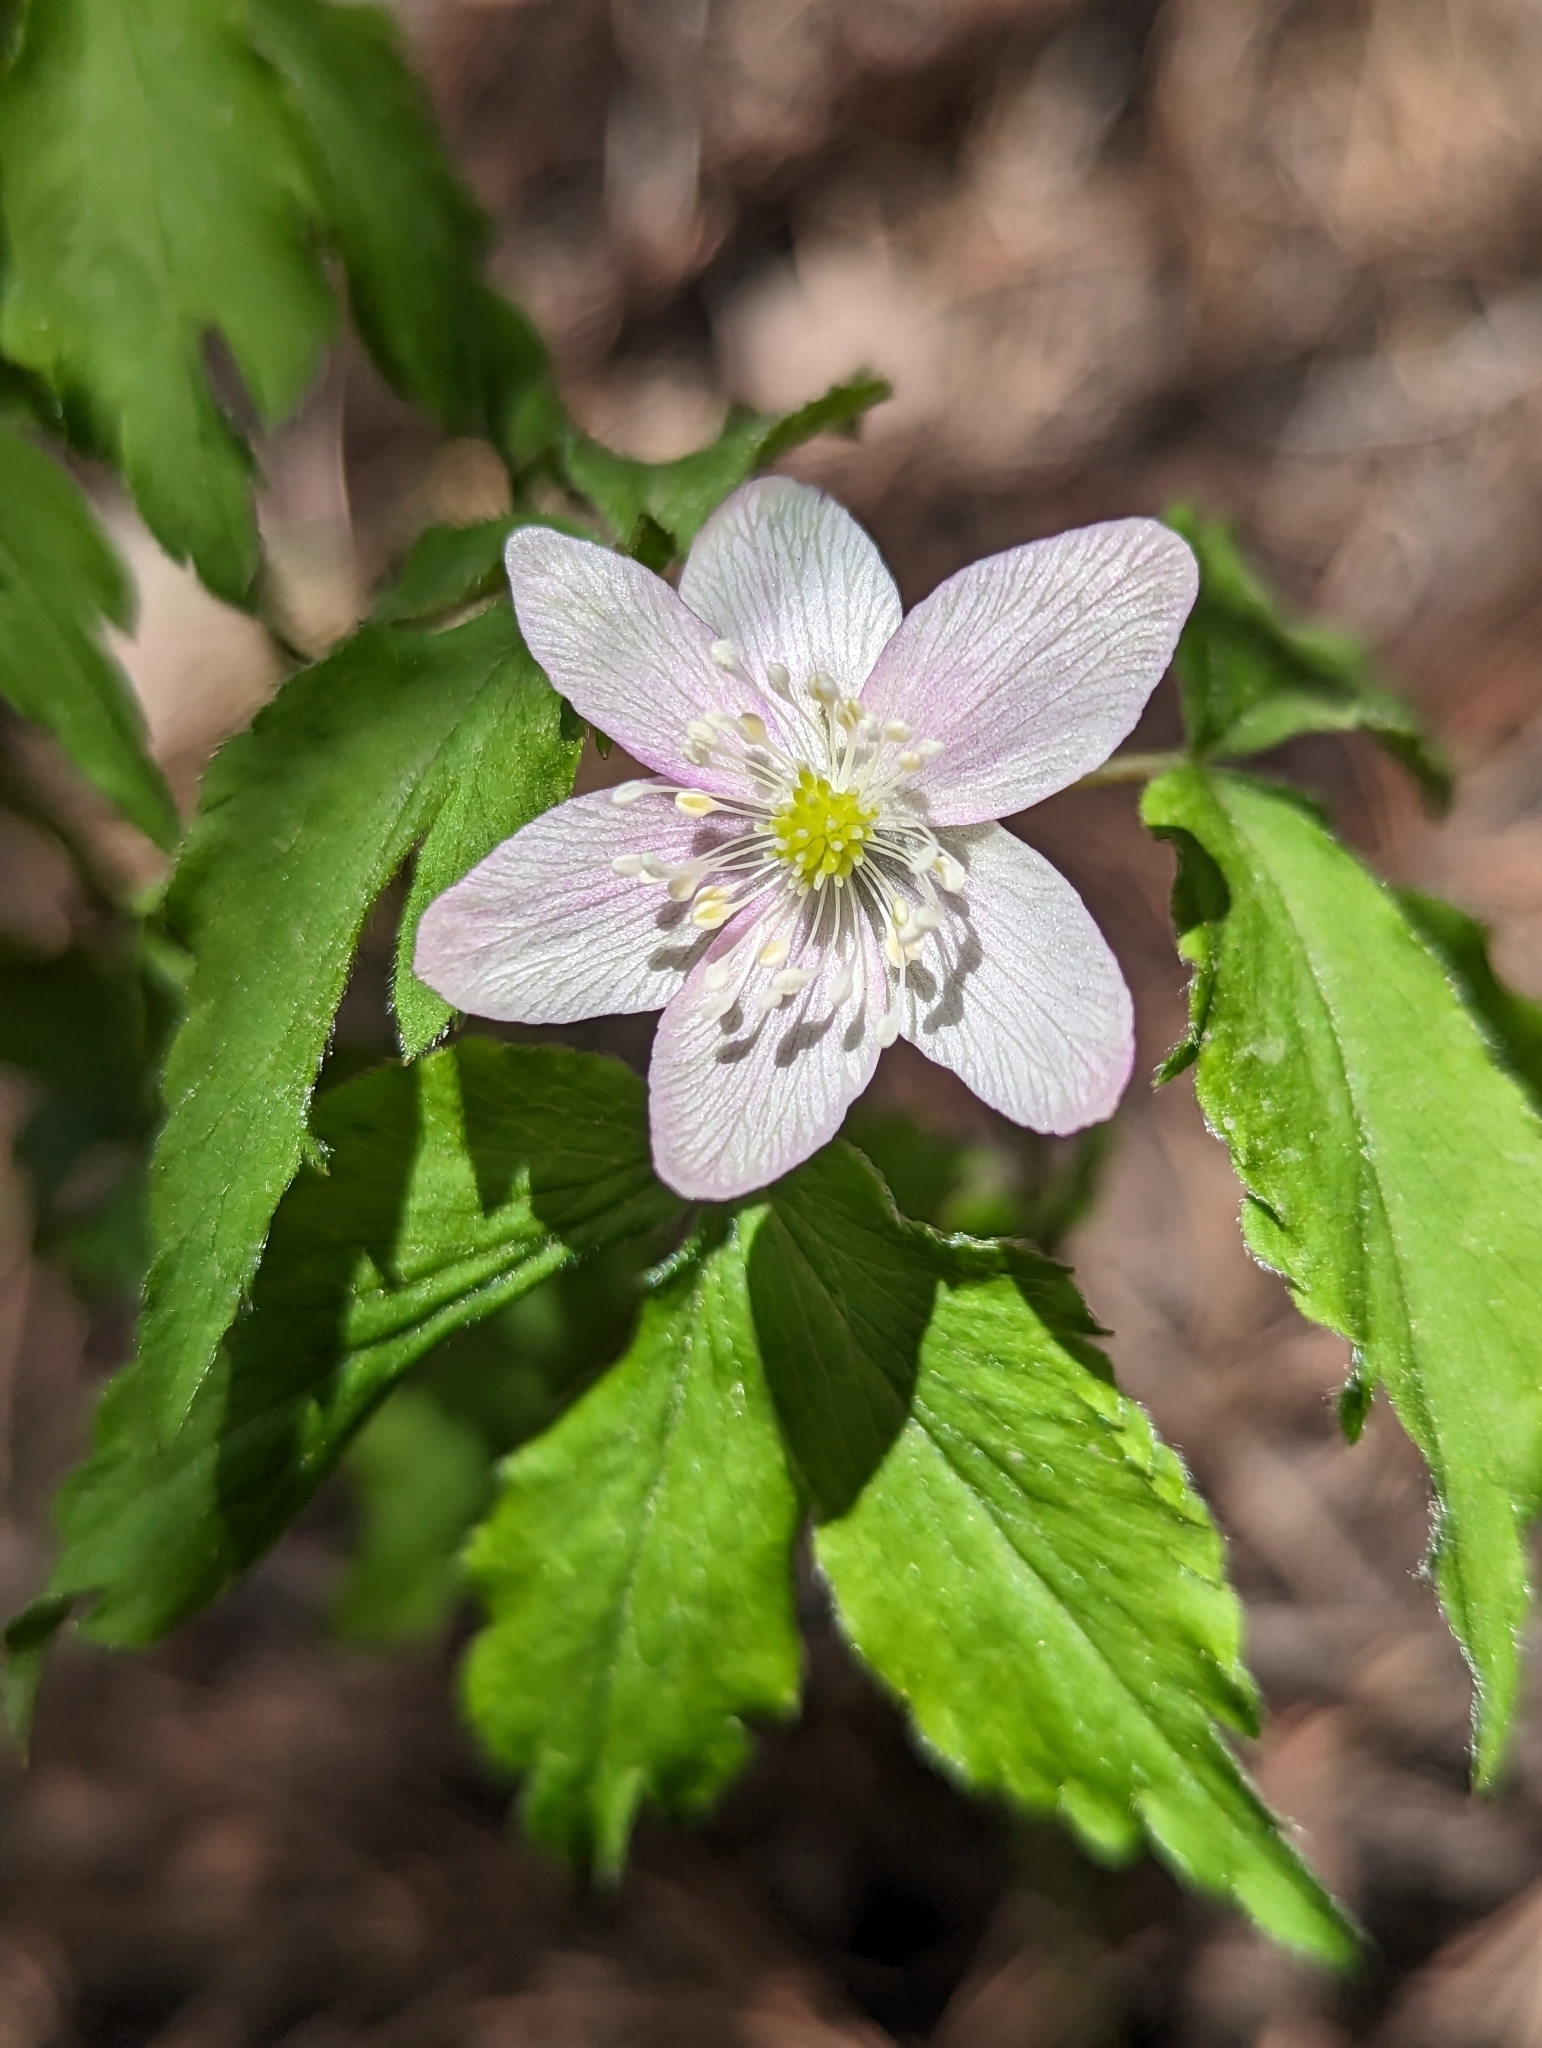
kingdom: Plantae
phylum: Tracheophyta
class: Magnoliopsida
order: Ranunculales
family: Ranunculaceae
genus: Anemone
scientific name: Anemone piperi
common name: Piper's anemone
